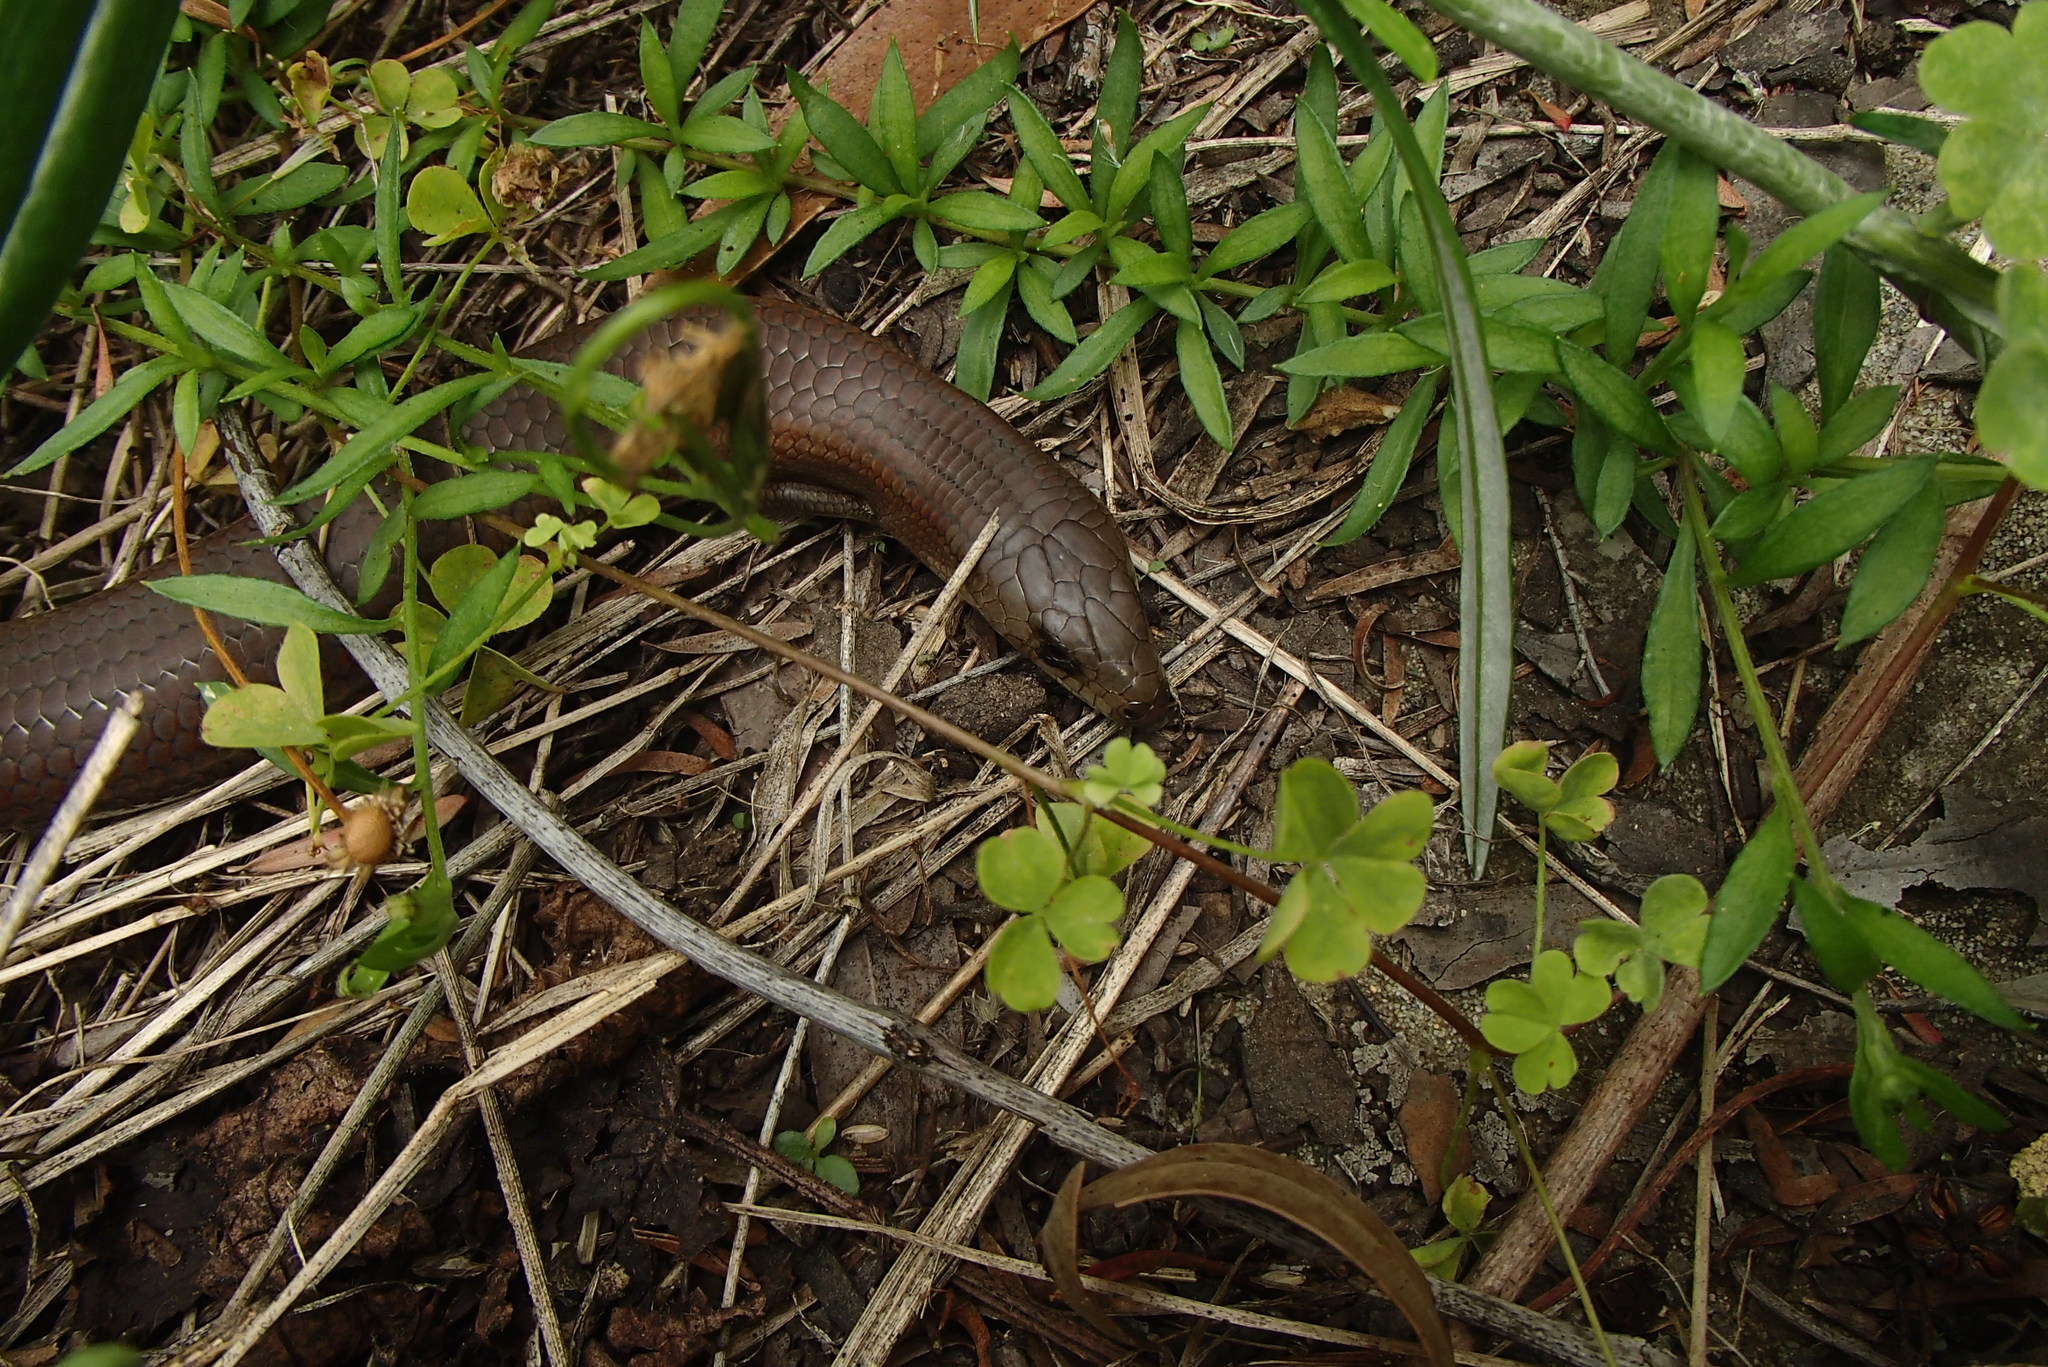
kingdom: Animalia
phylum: Chordata
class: Squamata
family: Scincidae
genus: Cyclodomorphus
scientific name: Cyclodomorphus michaeli
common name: Coastal she-oak slender bluetongue
